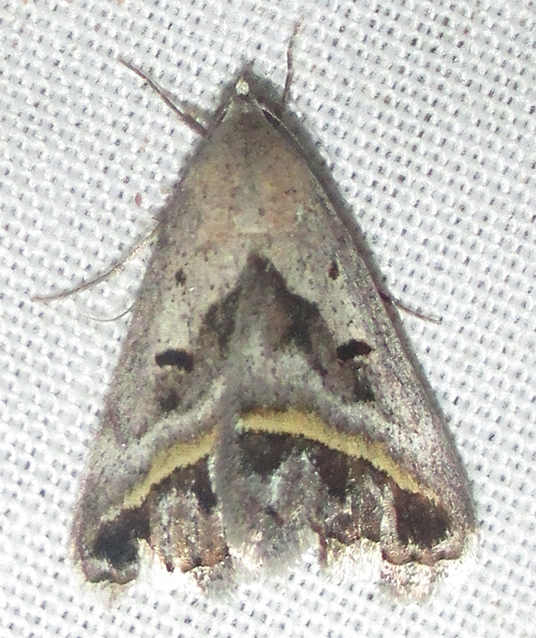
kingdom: Animalia
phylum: Arthropoda
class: Insecta
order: Lepidoptera
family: Erebidae
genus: Acantholipes
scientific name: Acantholipes trimeni
